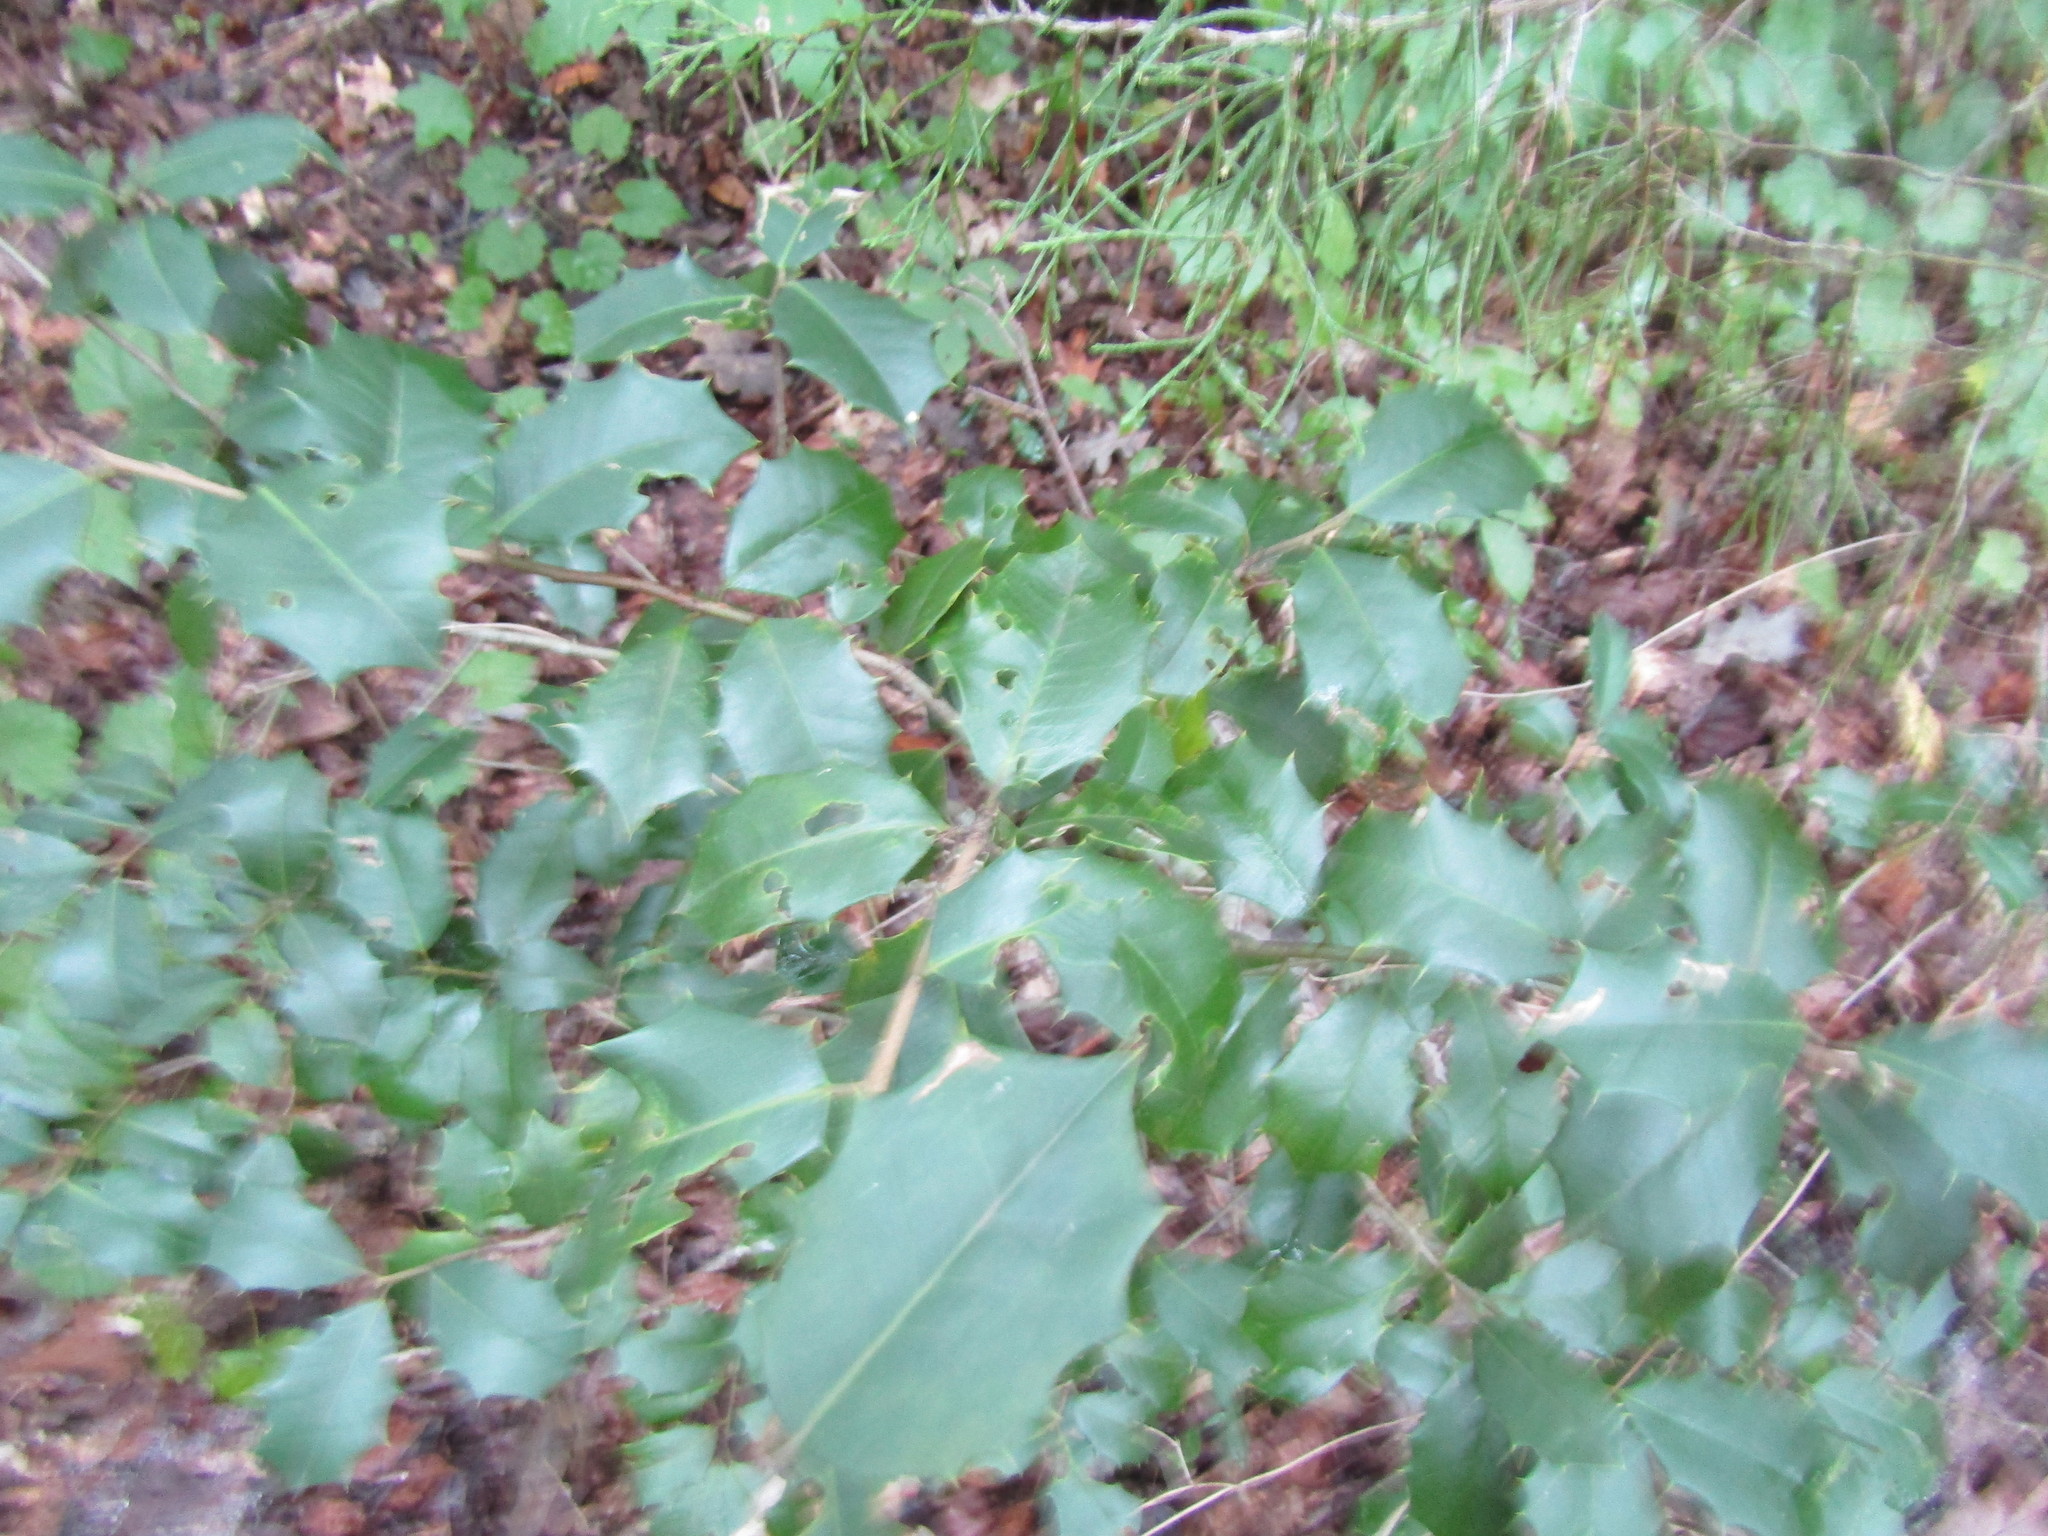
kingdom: Plantae
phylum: Tracheophyta
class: Magnoliopsida
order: Aquifoliales
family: Aquifoliaceae
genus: Ilex
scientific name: Ilex opaca
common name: American holly
